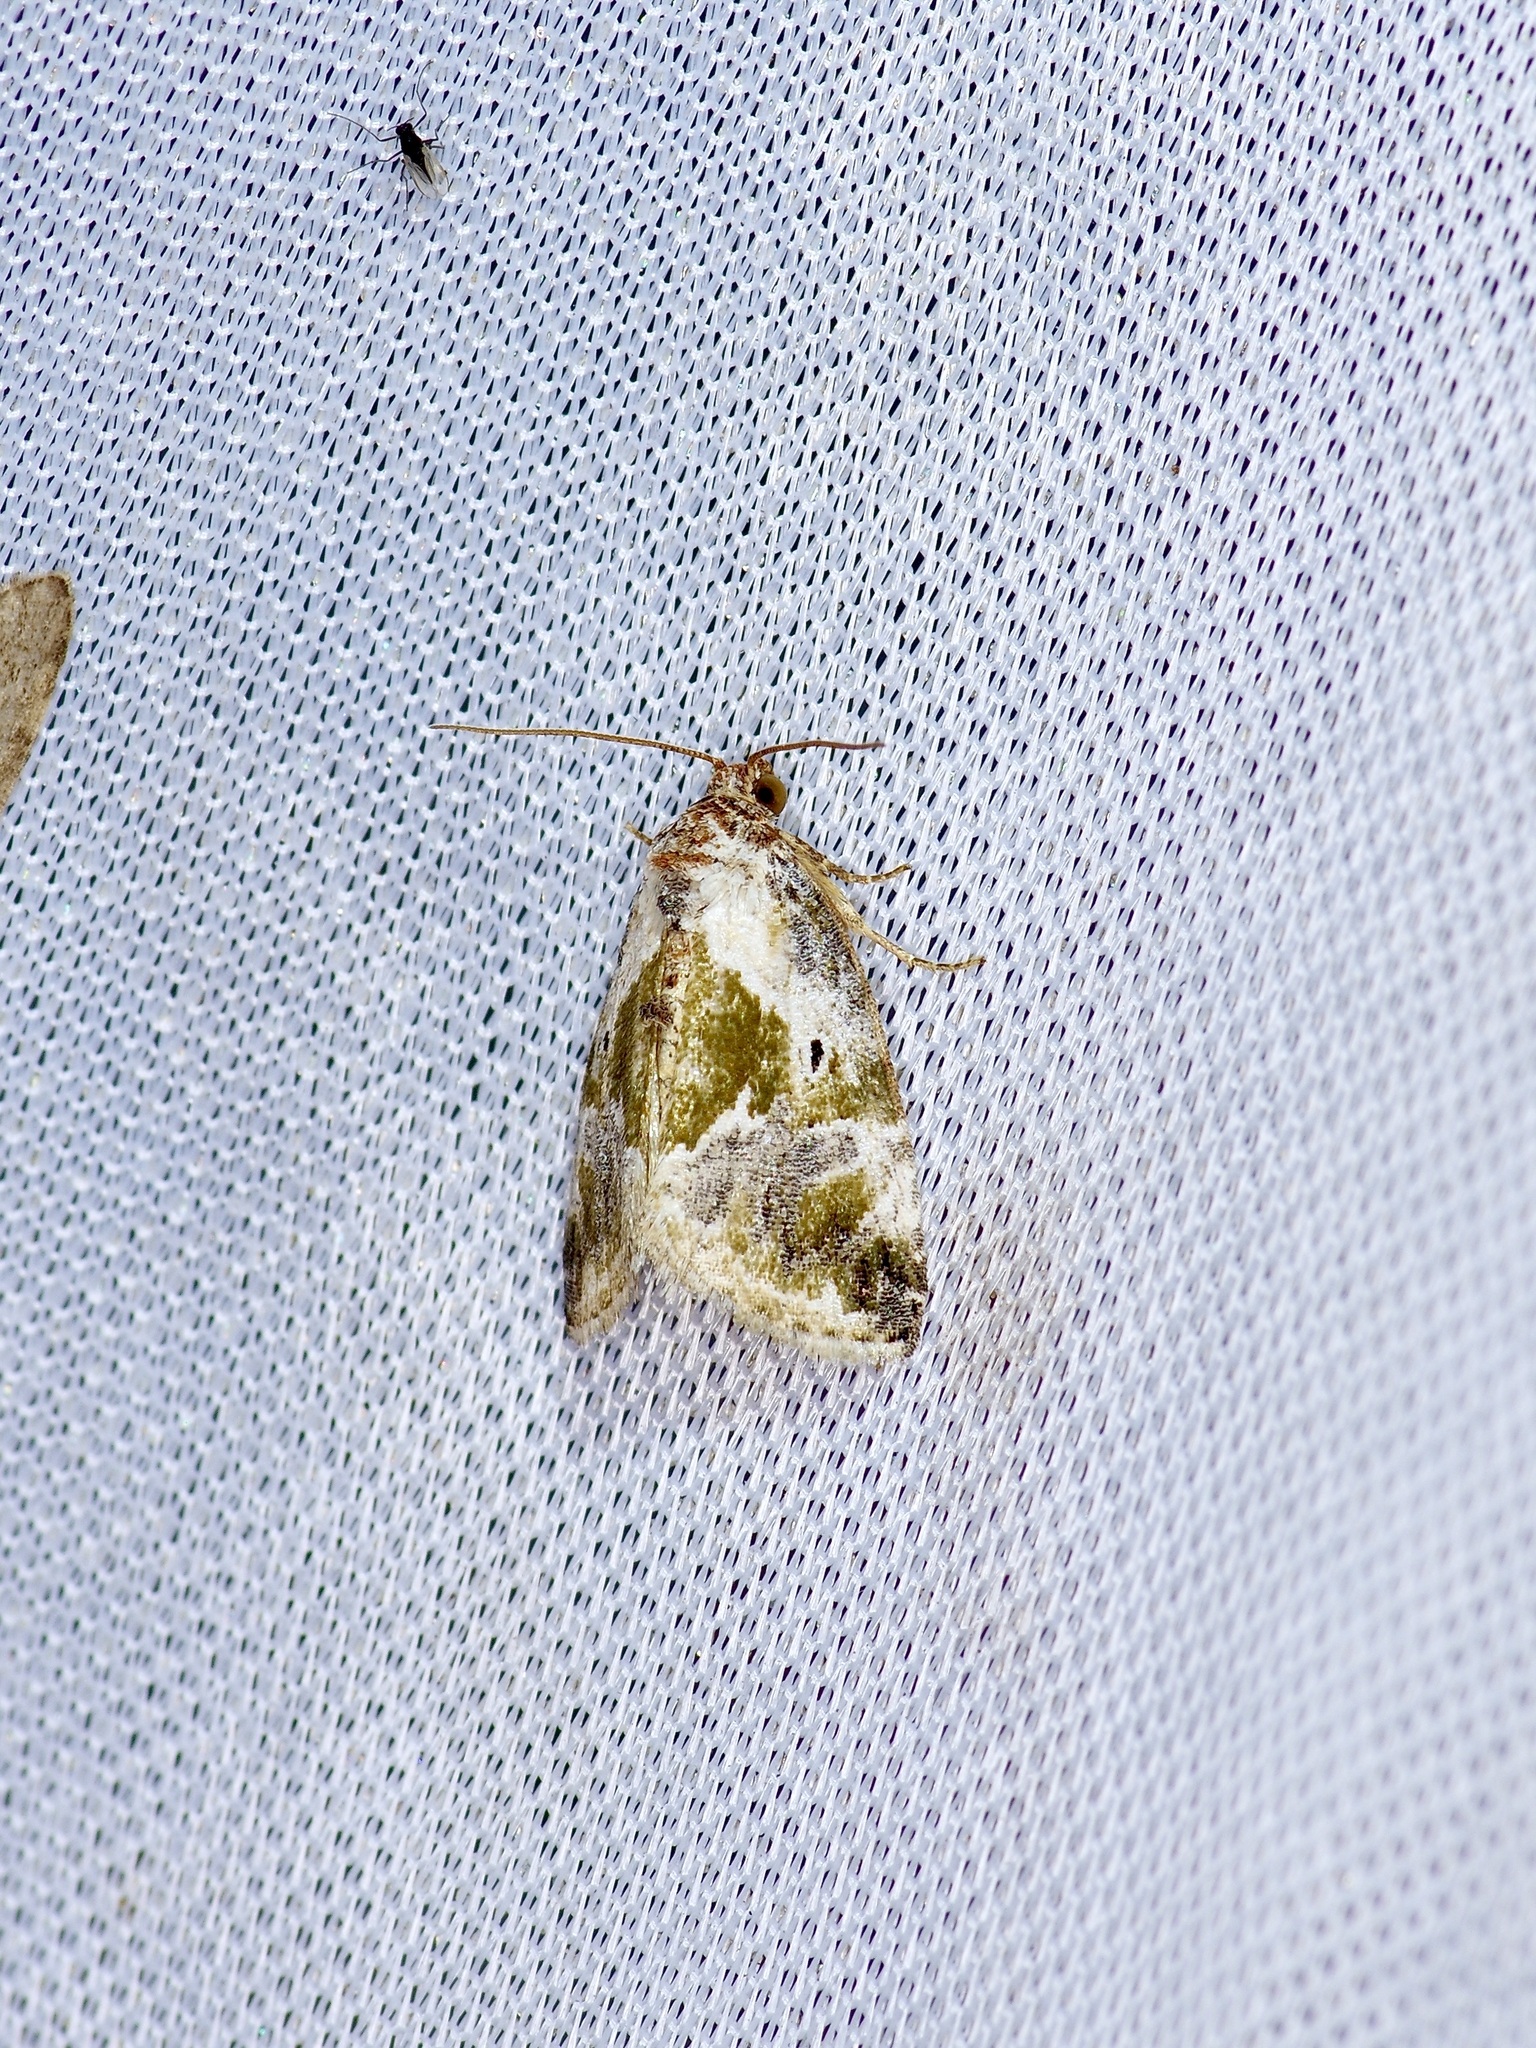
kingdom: Animalia
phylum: Arthropoda
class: Insecta
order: Lepidoptera
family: Noctuidae
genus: Maliattha
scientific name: Maliattha synochitis
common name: Black-dotted glyph
